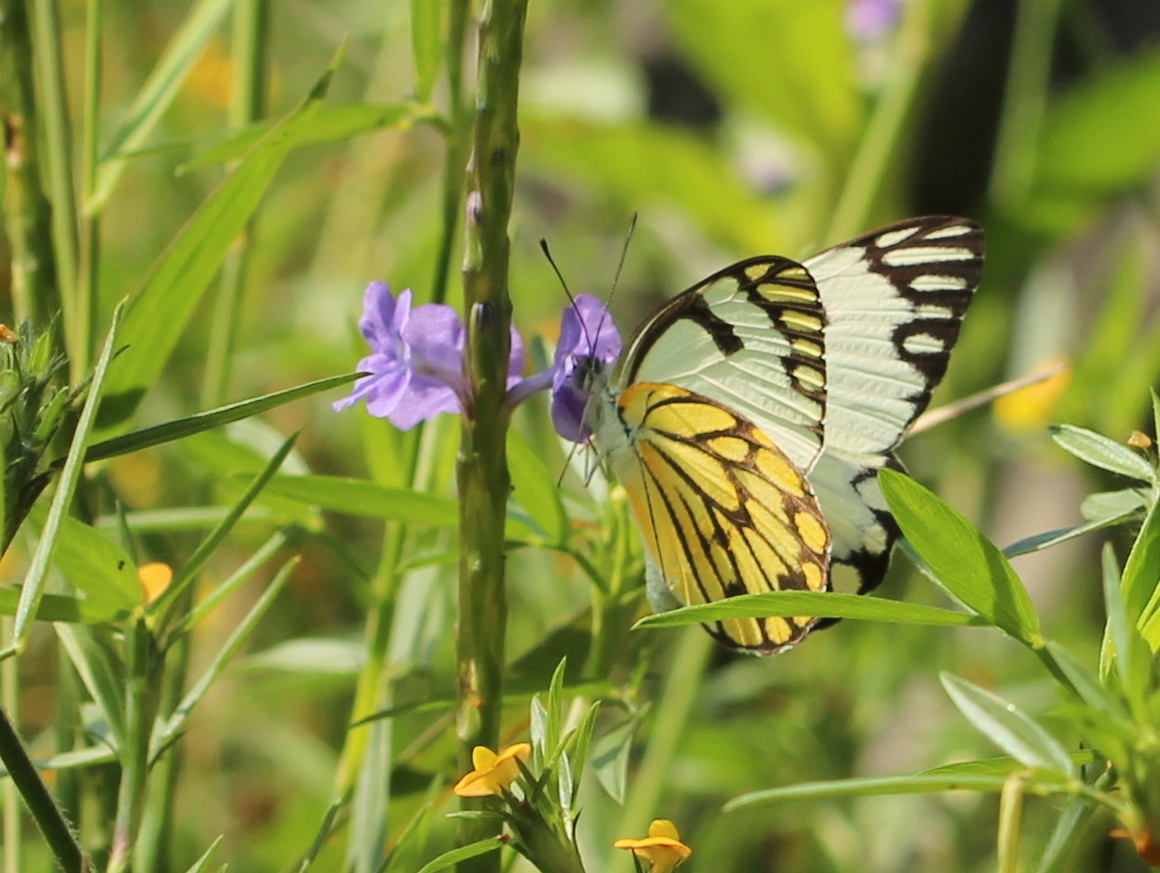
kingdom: Animalia
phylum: Arthropoda
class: Insecta
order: Lepidoptera
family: Pieridae
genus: Belenois
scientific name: Belenois aurota
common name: Brown-veined white
